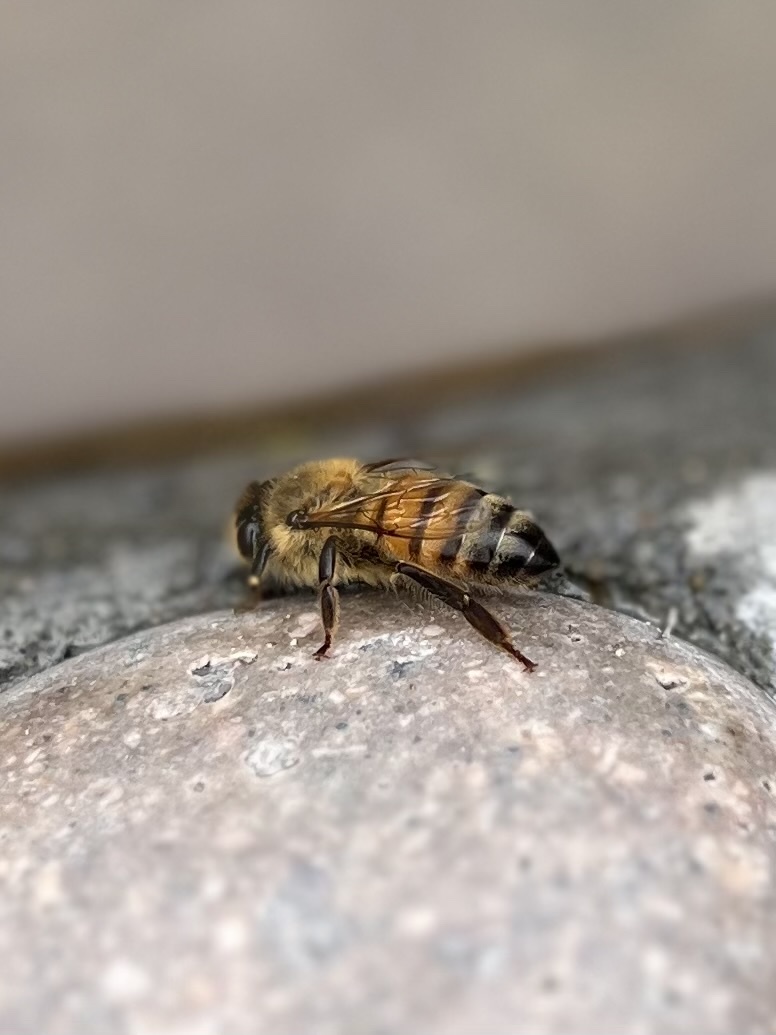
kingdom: Animalia
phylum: Arthropoda
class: Insecta
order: Hymenoptera
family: Apidae
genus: Apis
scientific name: Apis mellifera
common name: Honey bee
